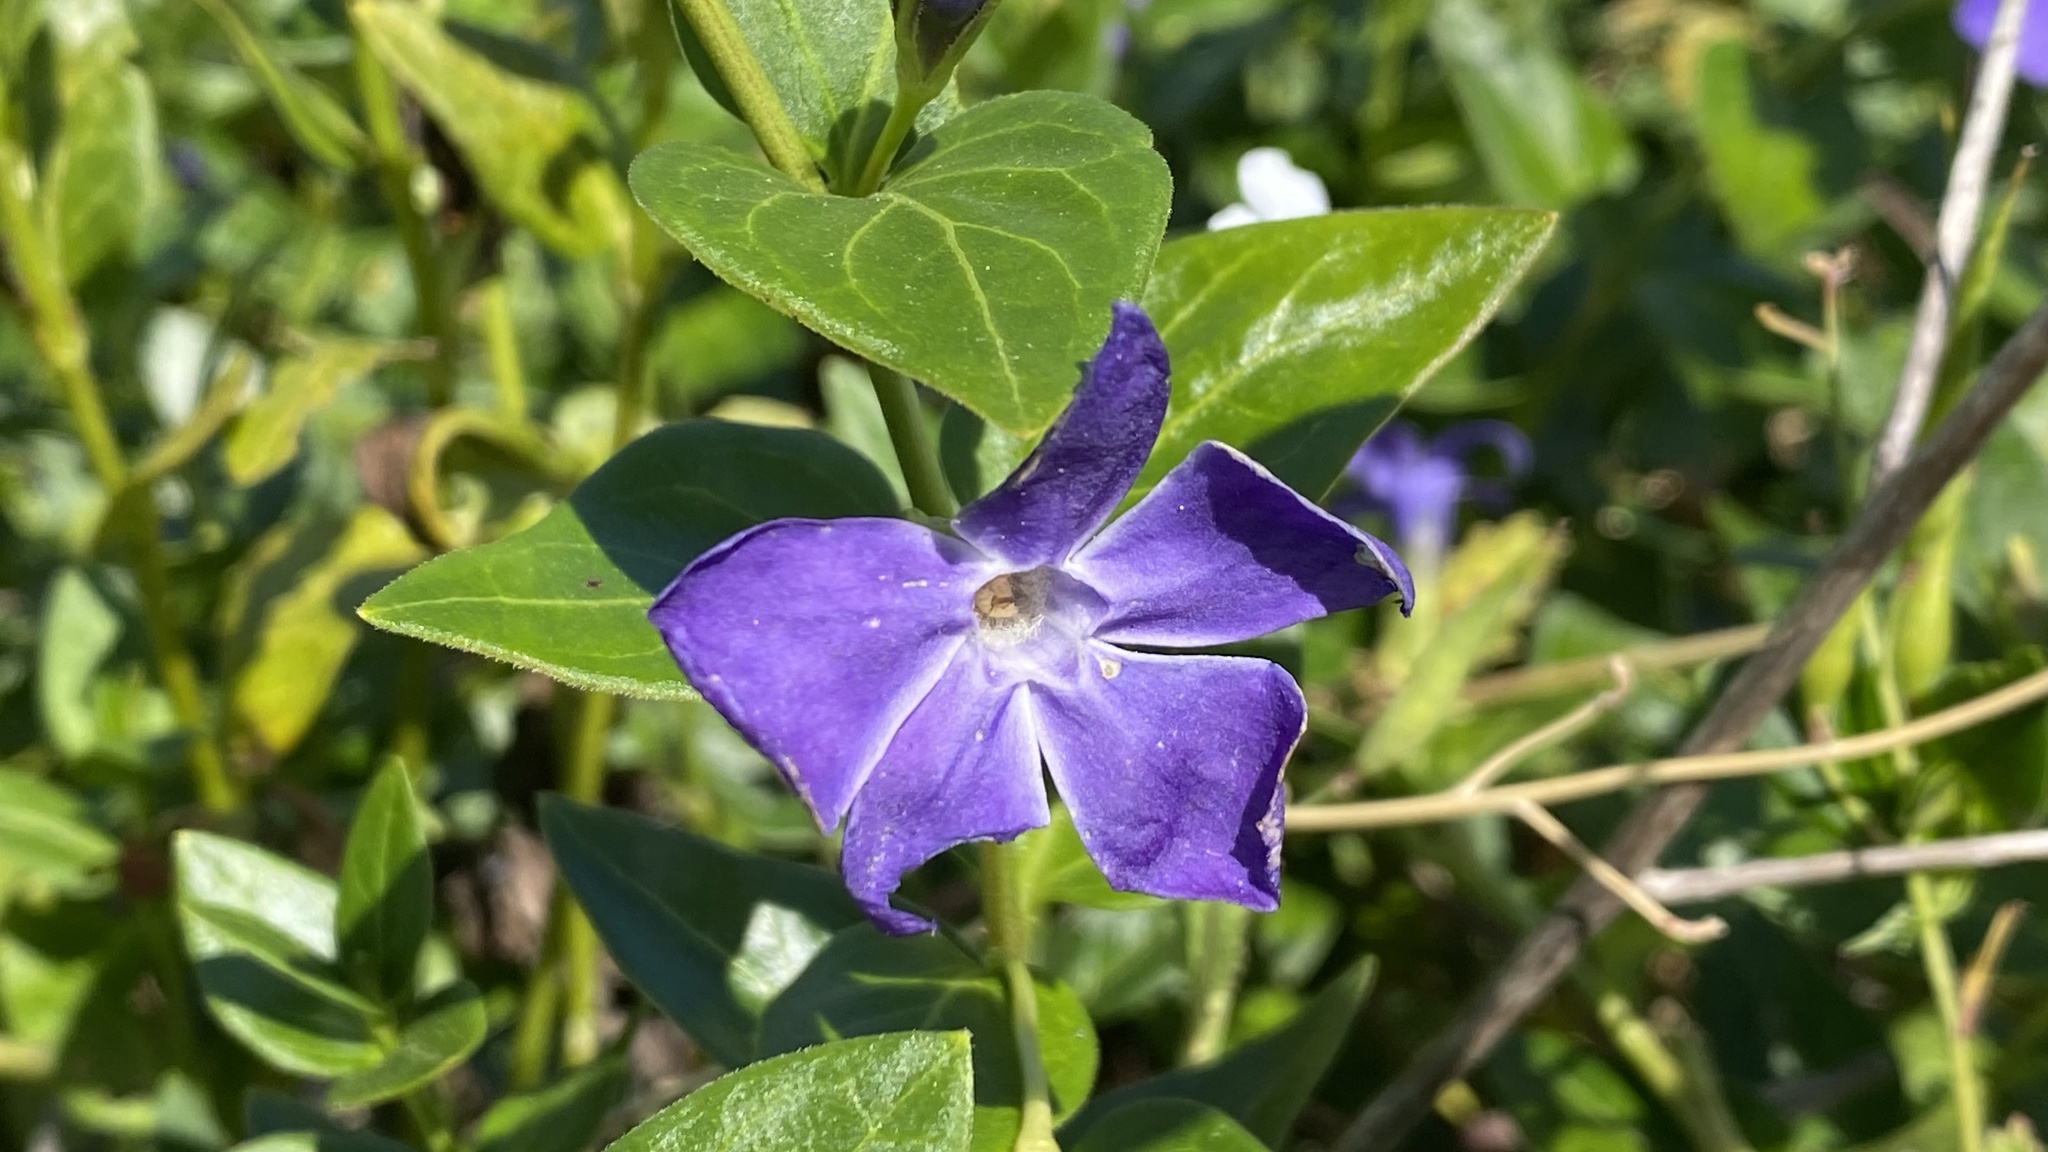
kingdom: Plantae
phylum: Tracheophyta
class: Magnoliopsida
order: Gentianales
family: Apocynaceae
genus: Vinca
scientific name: Vinca major
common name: Greater periwinkle
